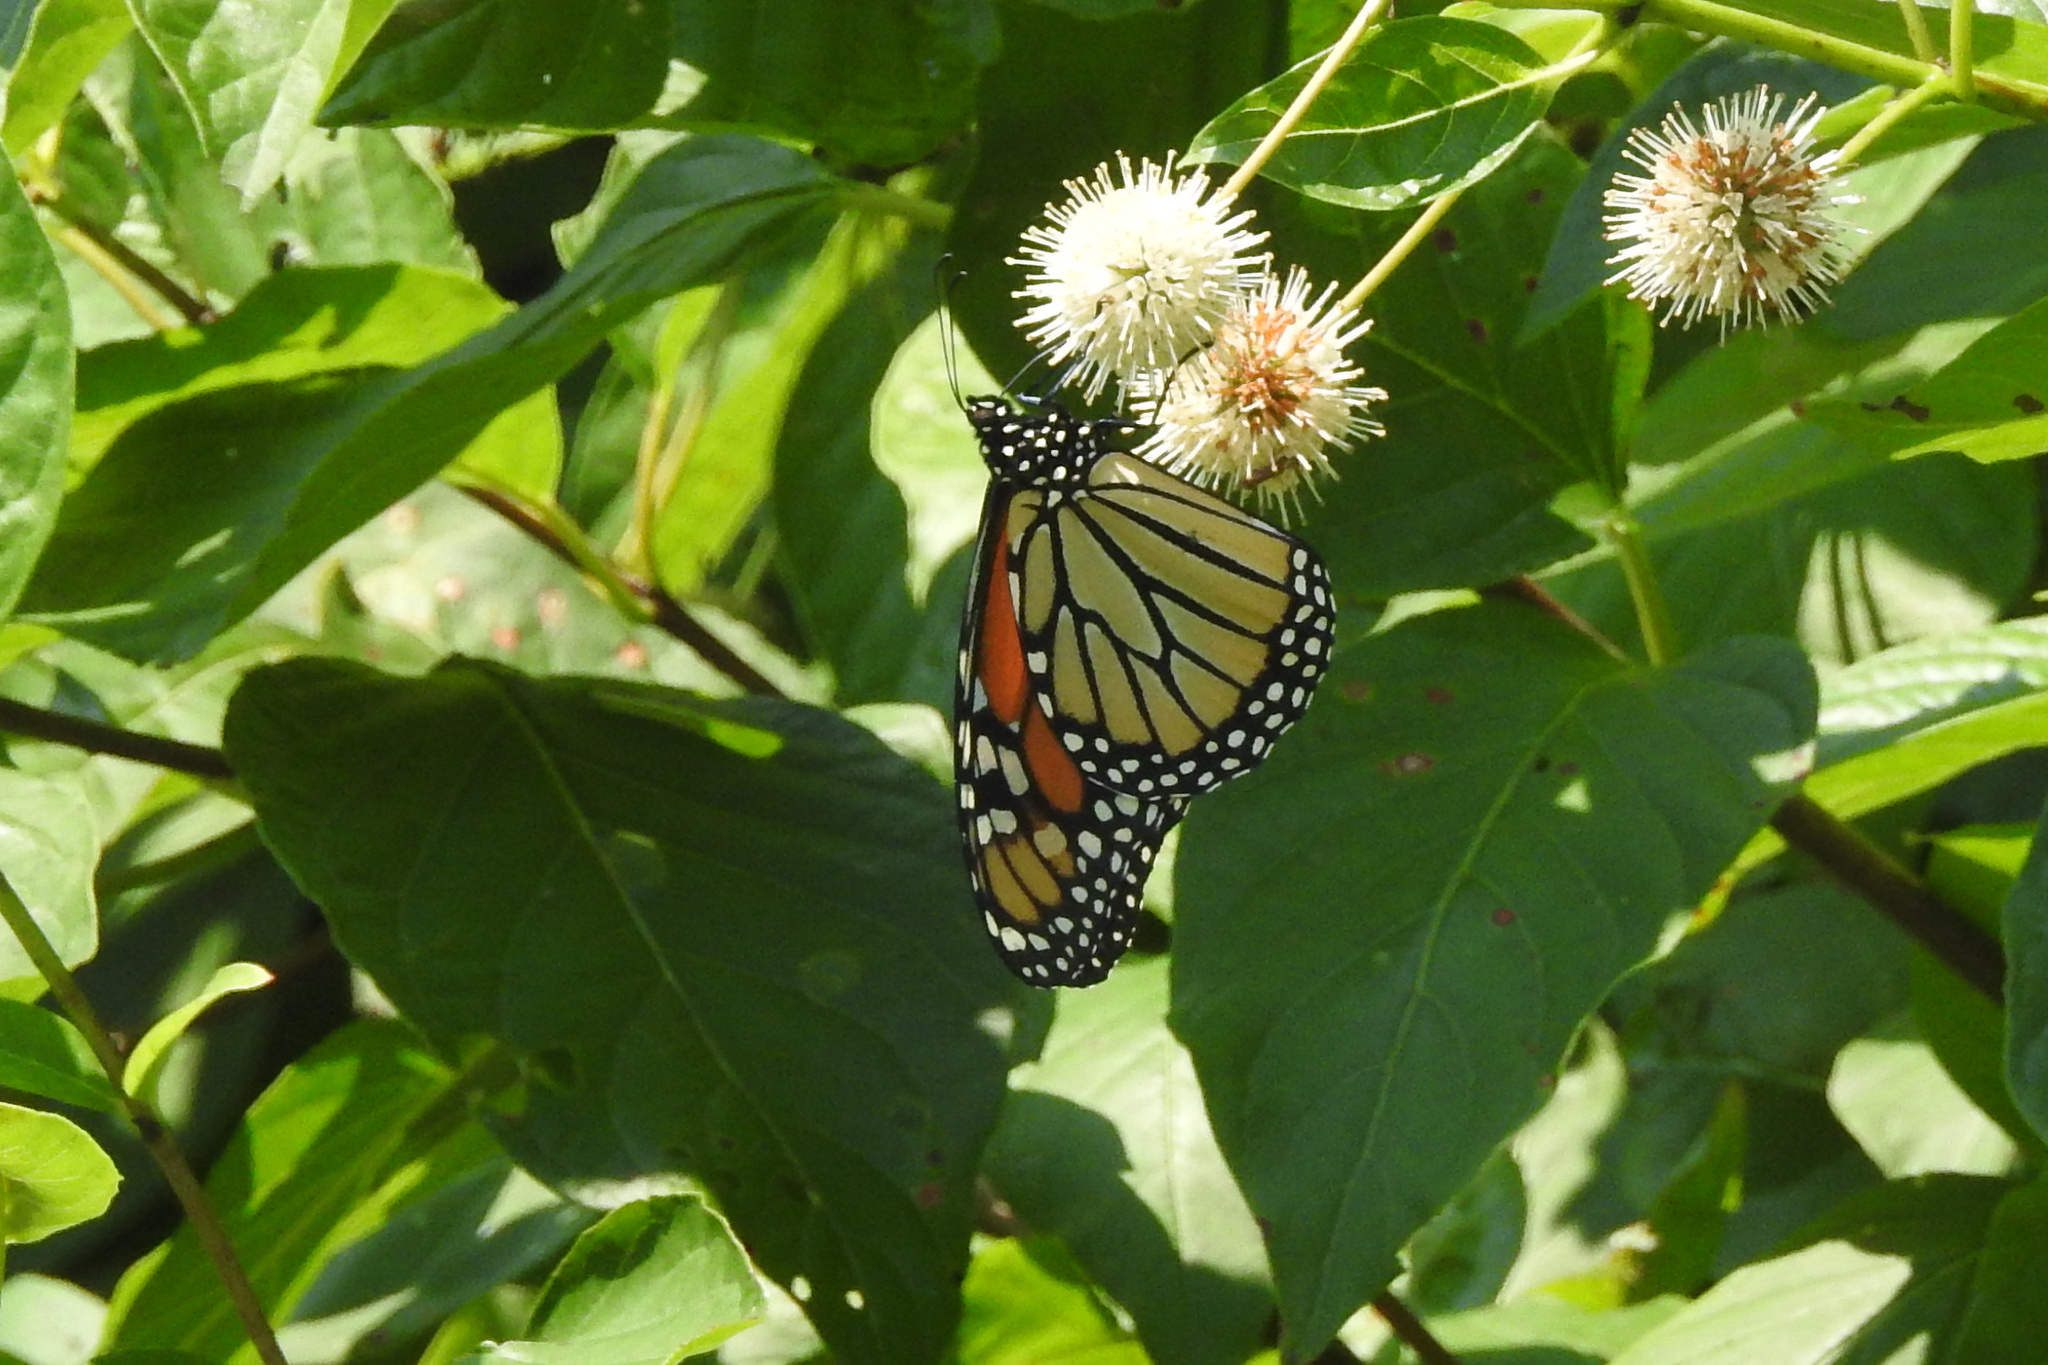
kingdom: Animalia
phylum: Arthropoda
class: Insecta
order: Lepidoptera
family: Nymphalidae
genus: Danaus
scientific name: Danaus plexippus
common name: Monarch
